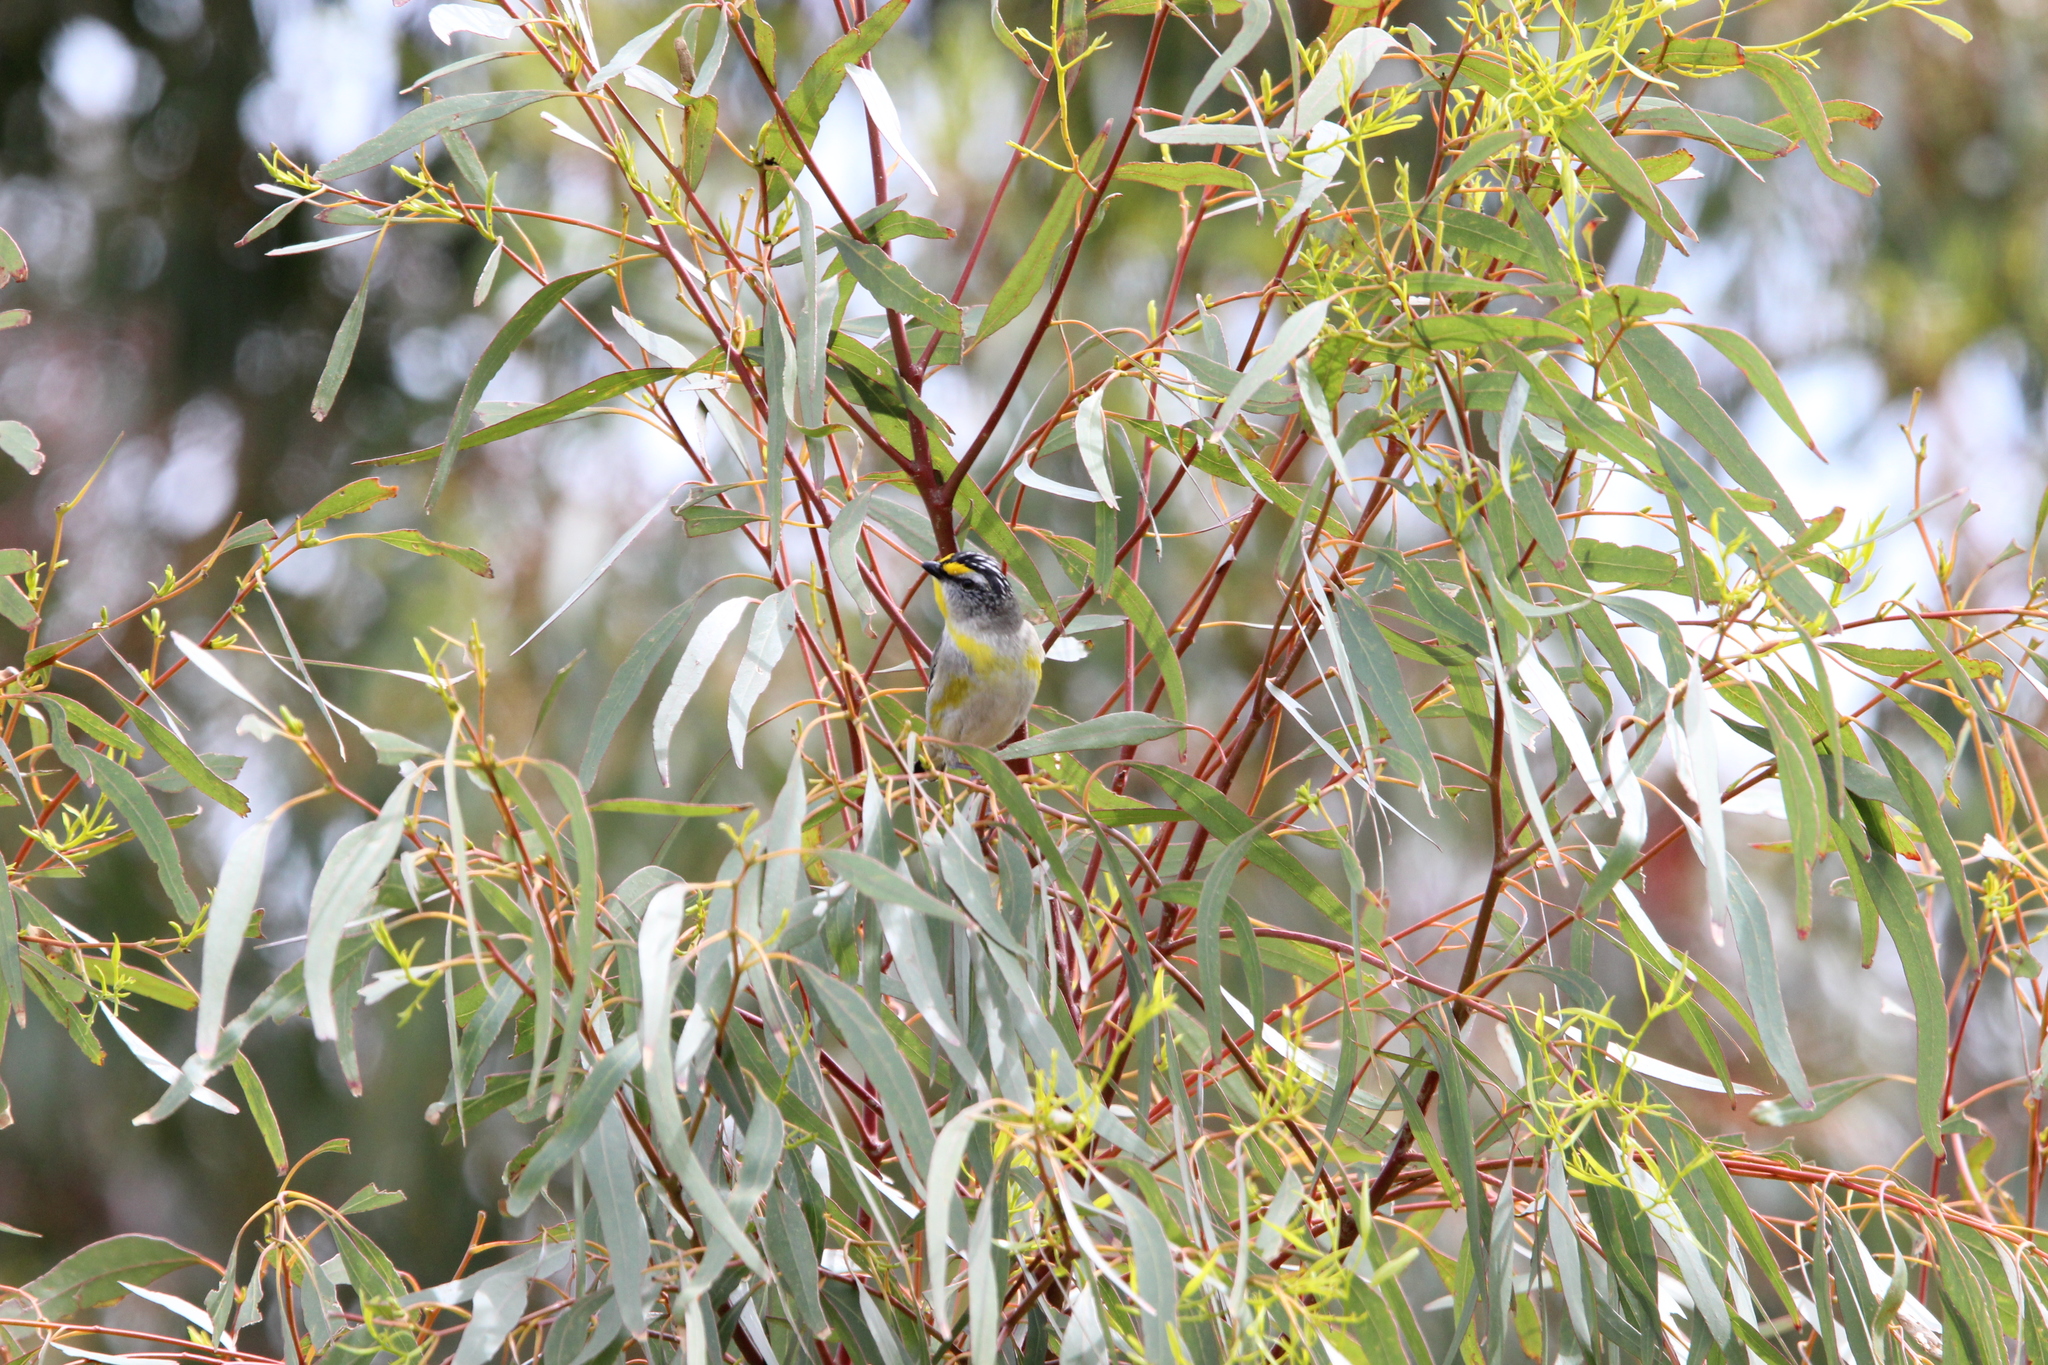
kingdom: Animalia
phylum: Chordata
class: Aves
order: Passeriformes
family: Pardalotidae
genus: Pardalotus
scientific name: Pardalotus striatus
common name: Striated pardalote
